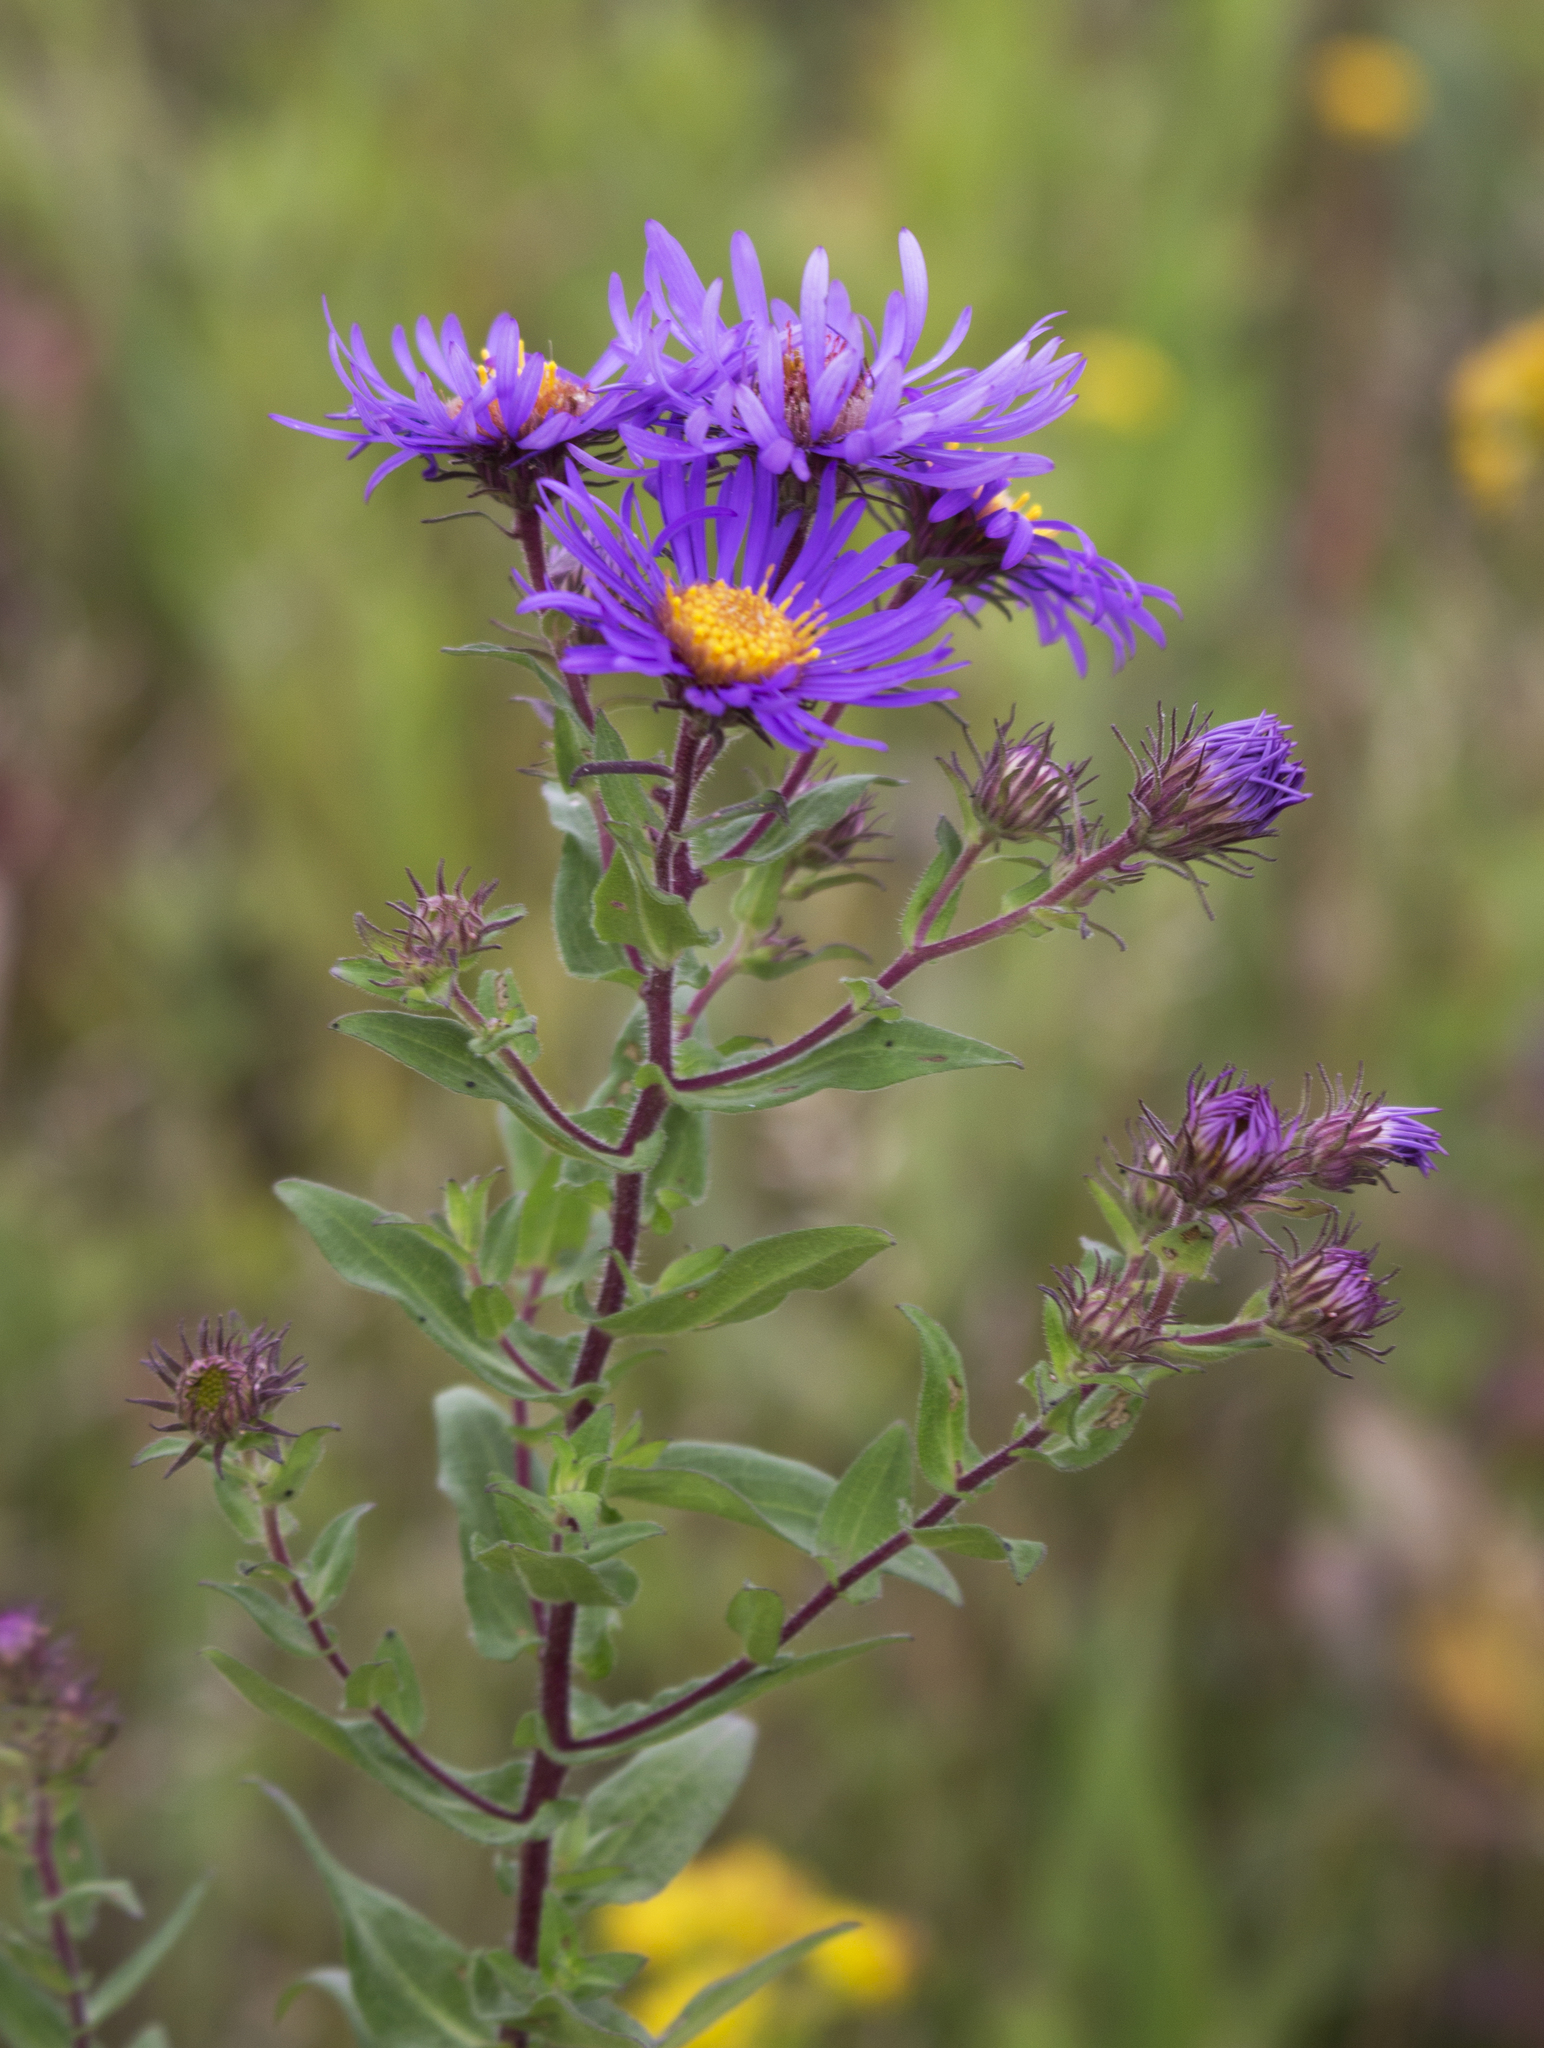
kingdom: Plantae
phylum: Tracheophyta
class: Magnoliopsida
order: Asterales
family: Asteraceae
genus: Symphyotrichum
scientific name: Symphyotrichum novae-angliae
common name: Michaelmas daisy
